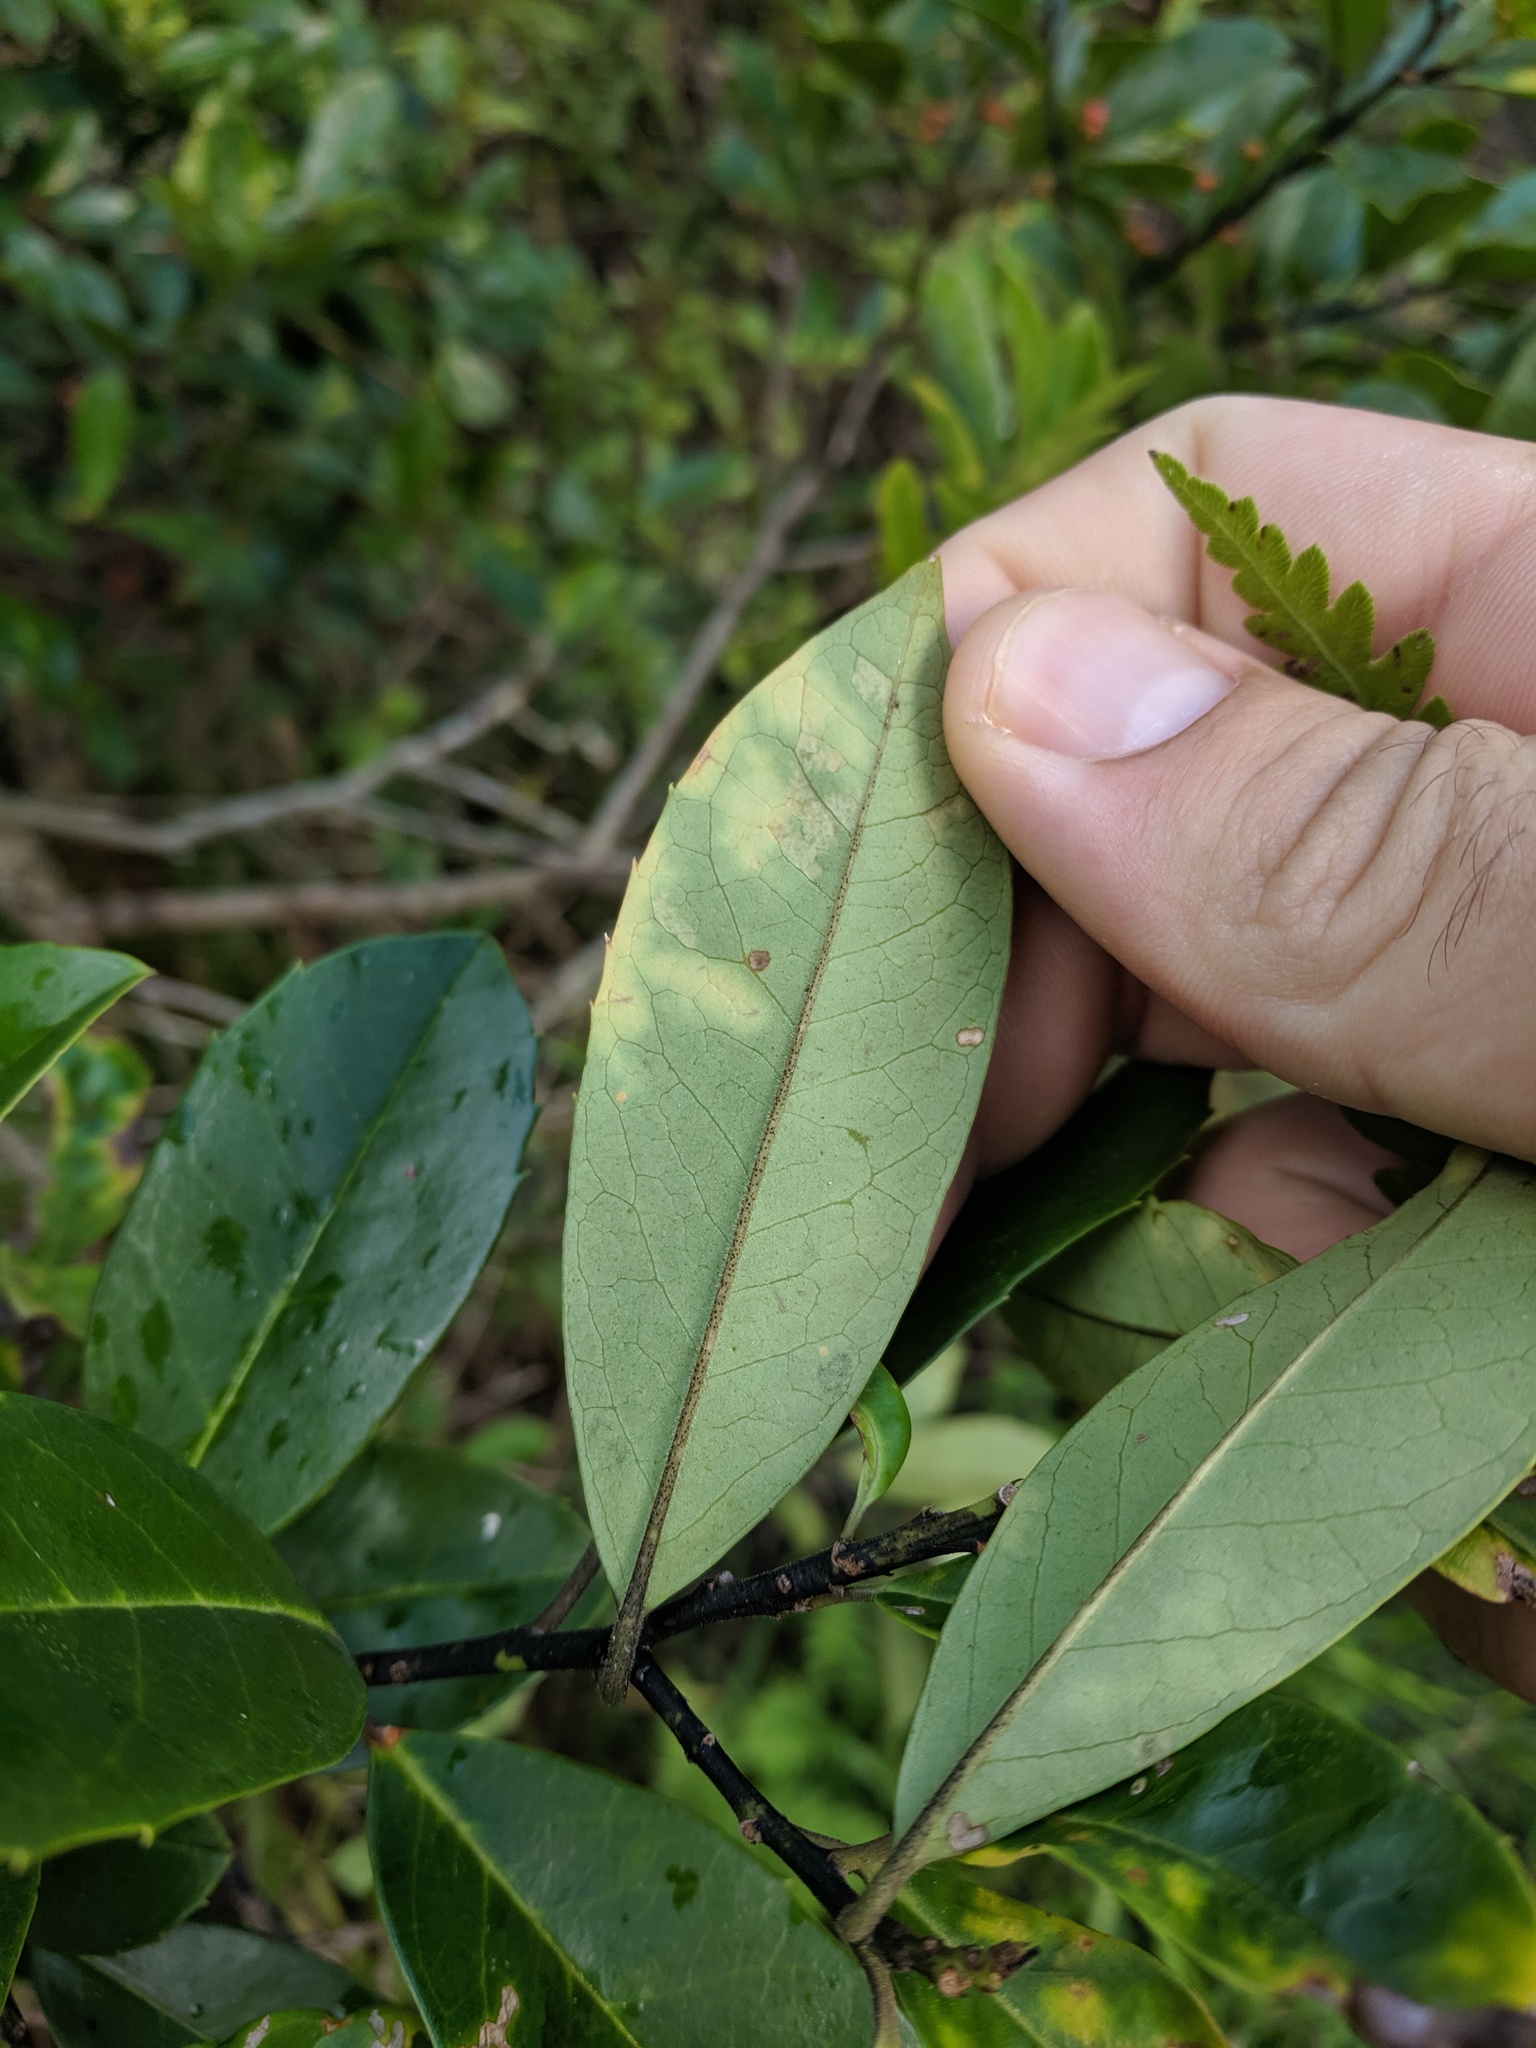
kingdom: Plantae
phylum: Tracheophyta
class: Magnoliopsida
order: Aquifoliales
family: Aquifoliaceae
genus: Ilex
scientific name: Ilex cassine
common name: Dahoon
